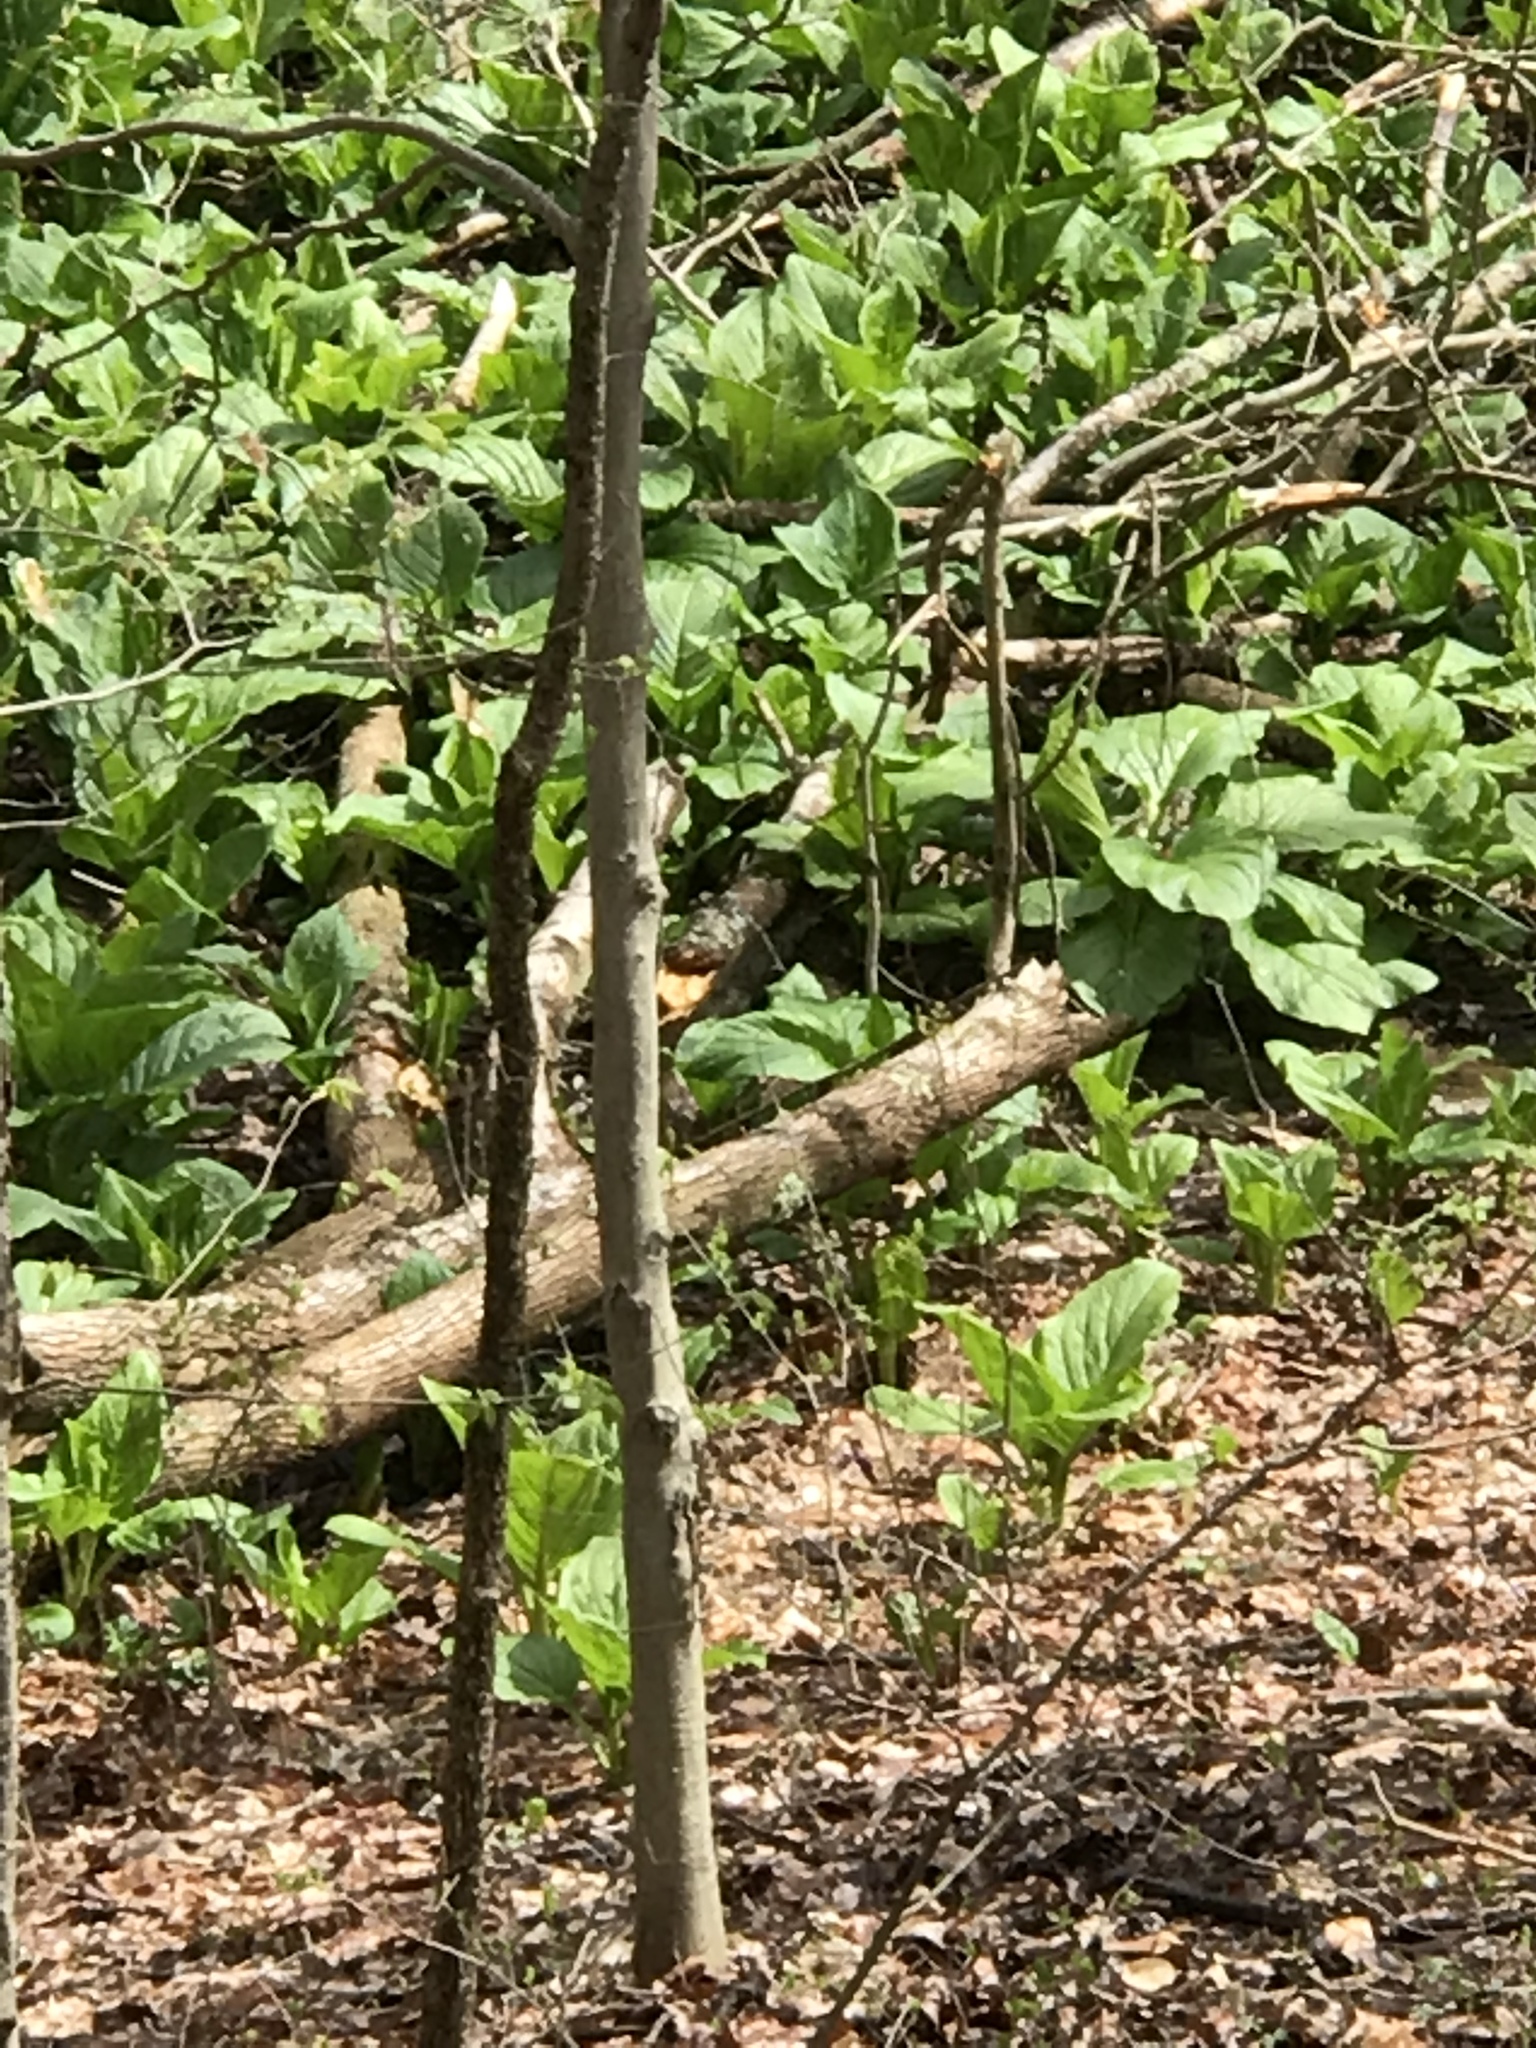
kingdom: Plantae
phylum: Tracheophyta
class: Liliopsida
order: Alismatales
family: Araceae
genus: Symplocarpus
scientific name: Symplocarpus foetidus
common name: Eastern skunk cabbage
